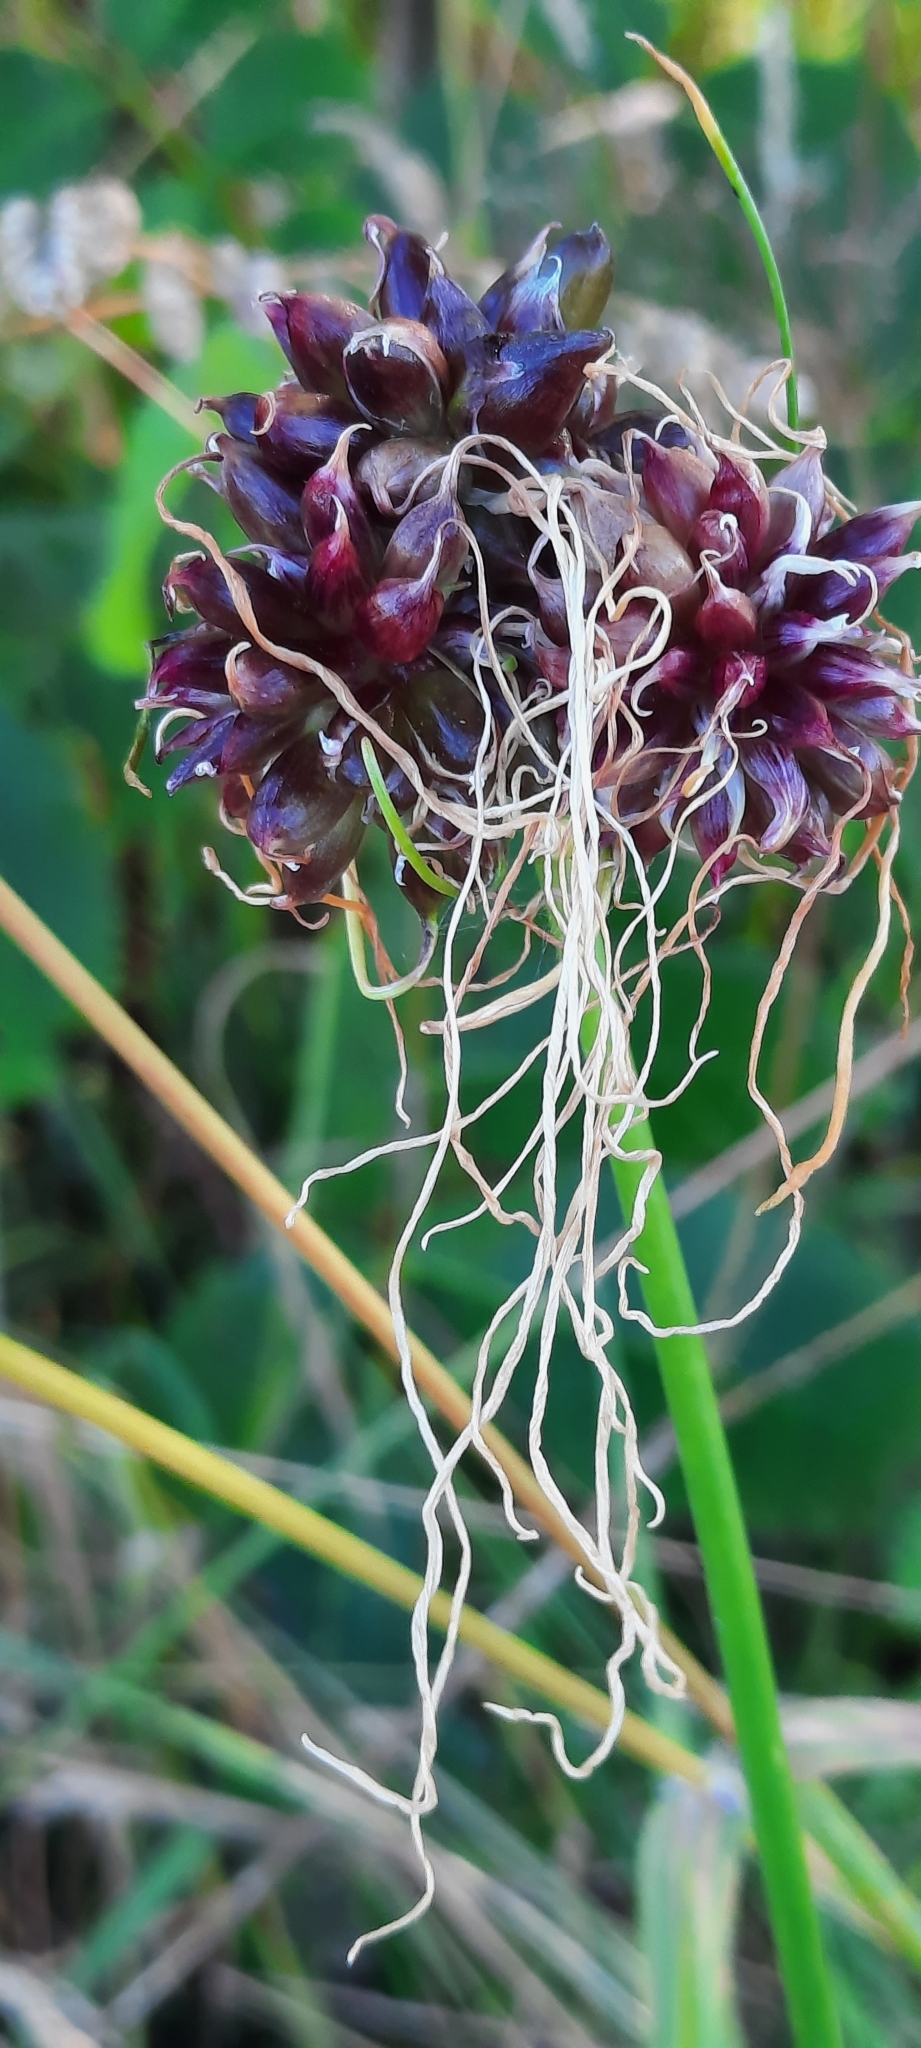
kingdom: Plantae
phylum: Tracheophyta
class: Liliopsida
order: Asparagales
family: Amaryllidaceae
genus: Allium
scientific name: Allium vineale
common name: Crow garlic
